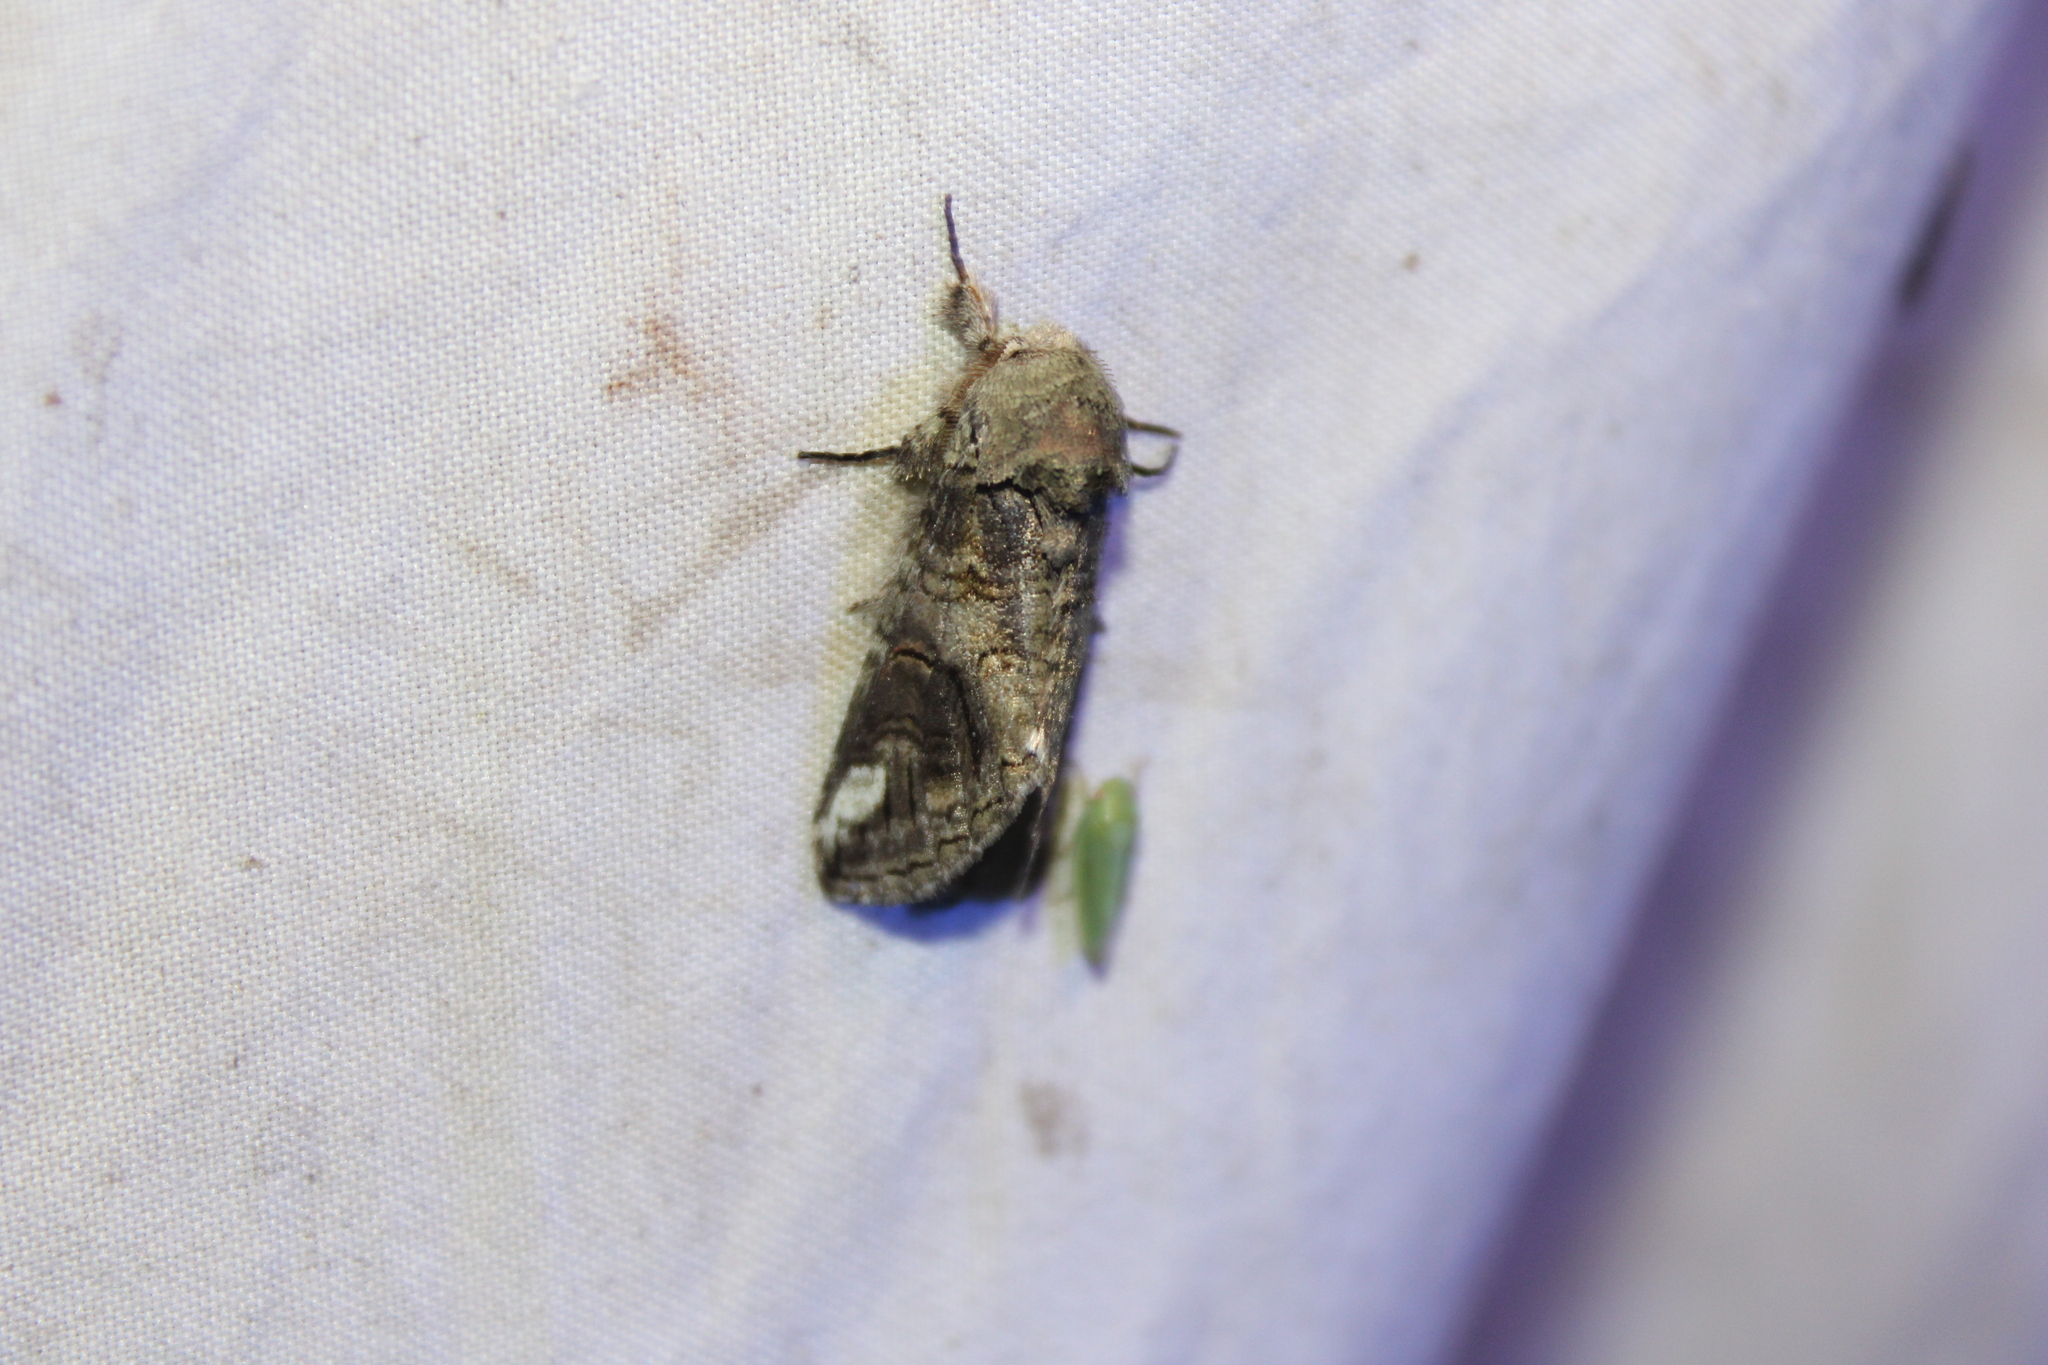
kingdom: Animalia
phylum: Arthropoda
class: Insecta
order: Lepidoptera
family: Notodontidae
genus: Heterocampa
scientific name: Heterocampa obliqua
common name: Oblique heterocampa
